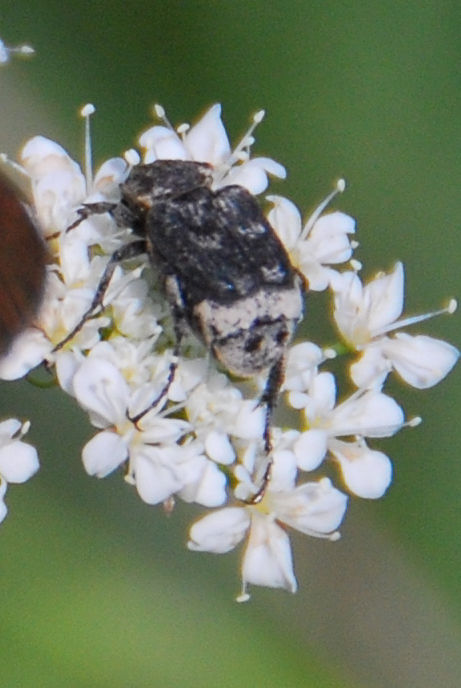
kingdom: Animalia
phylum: Arthropoda
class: Insecta
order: Coleoptera
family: Scarabaeidae
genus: Valgus
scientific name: Valgus hemipterus
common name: Bug flower chafer
